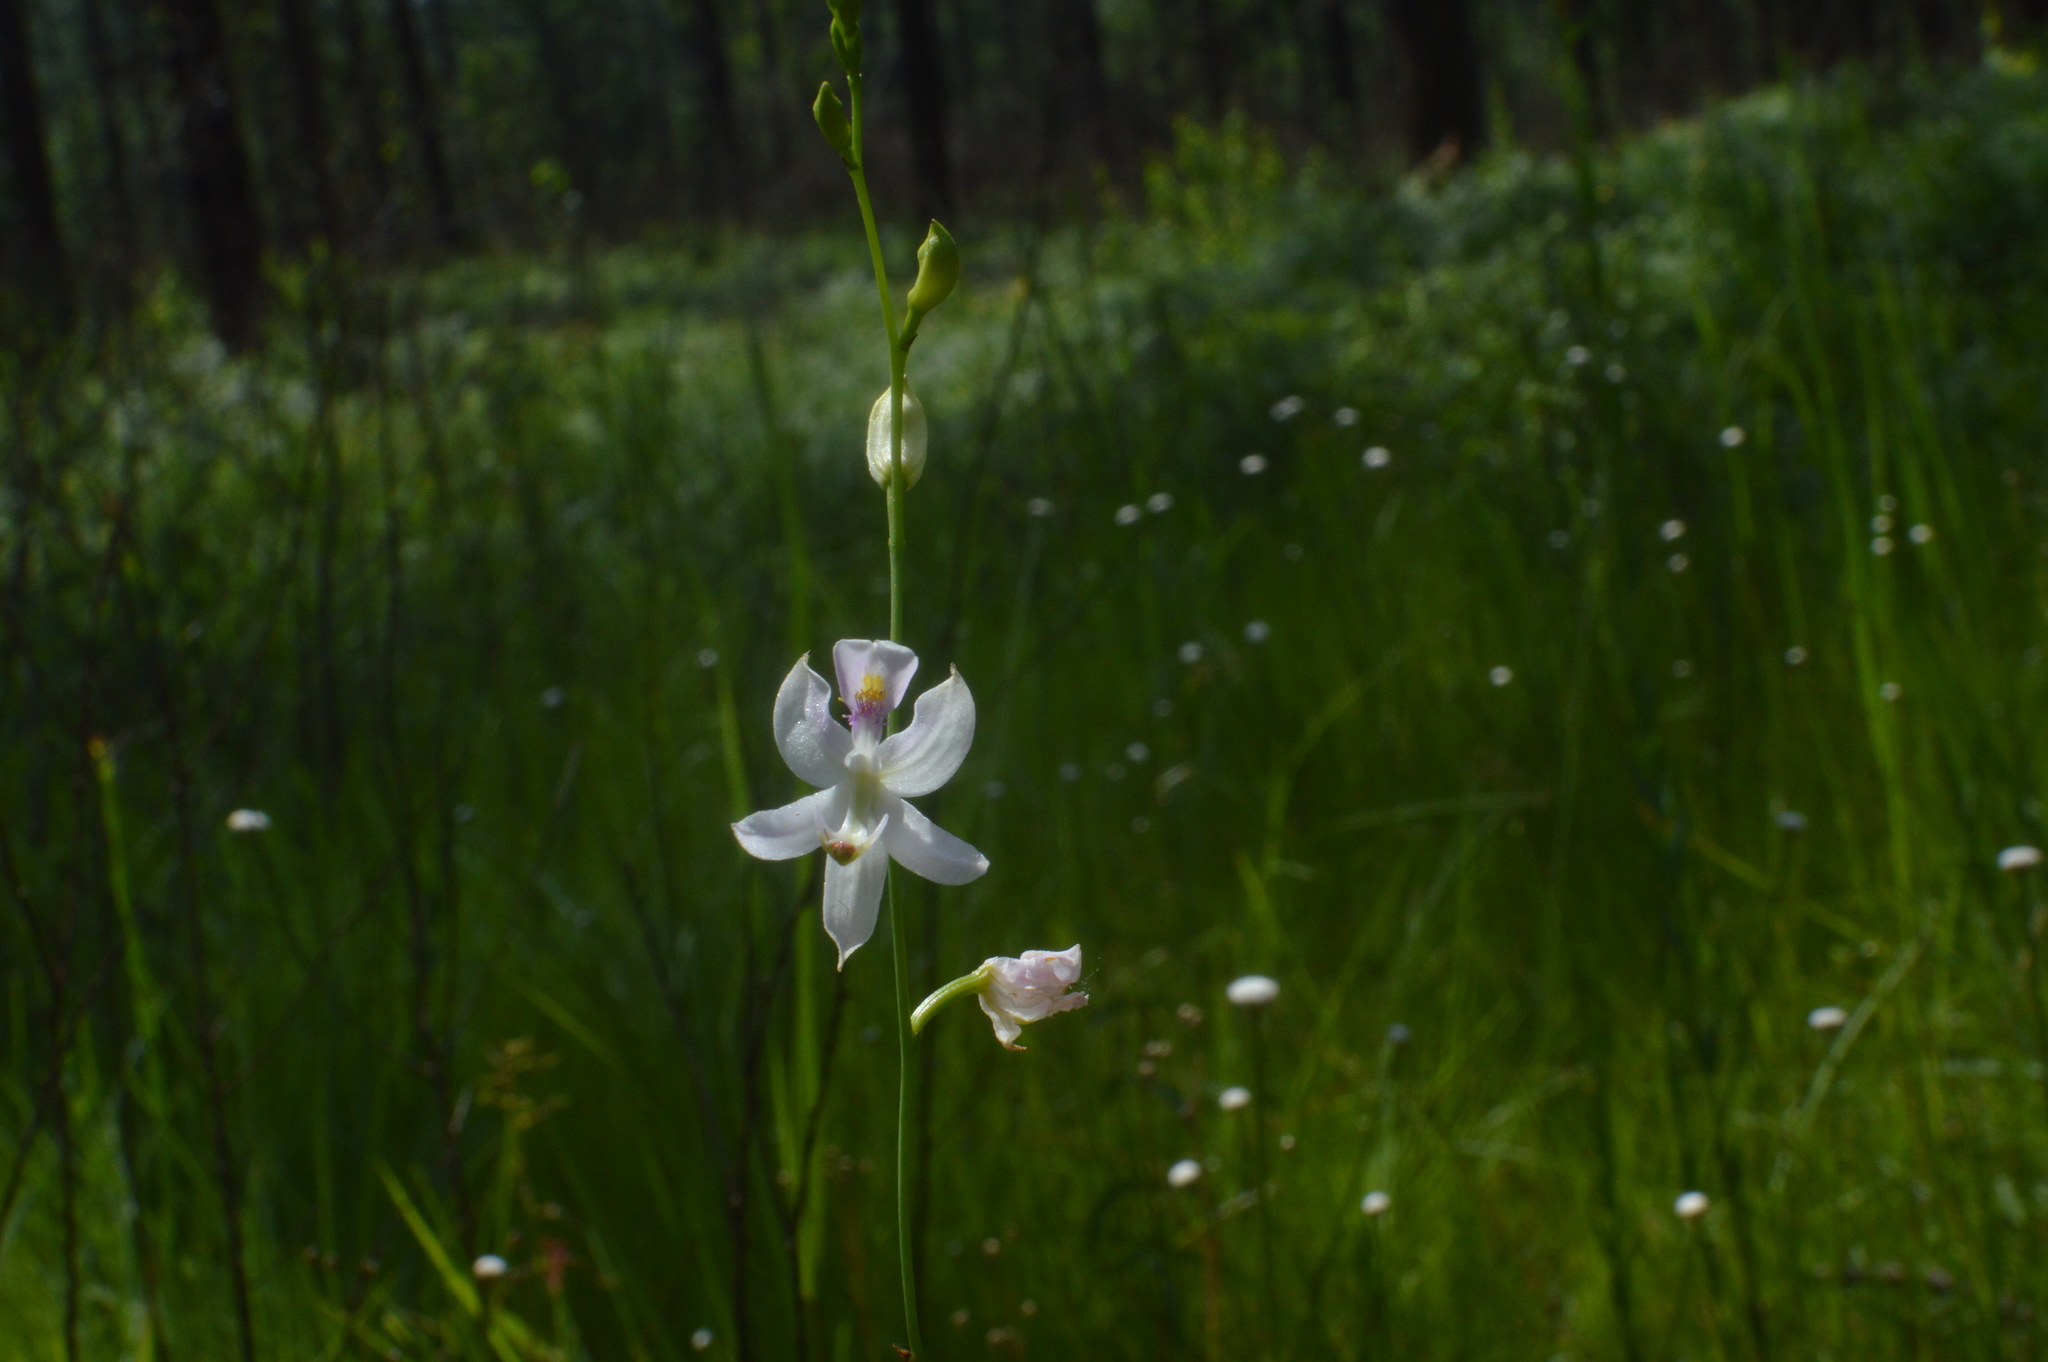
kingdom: Plantae
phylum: Tracheophyta
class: Liliopsida
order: Asparagales
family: Orchidaceae
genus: Calopogon
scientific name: Calopogon pallidus
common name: Pale grasspink
